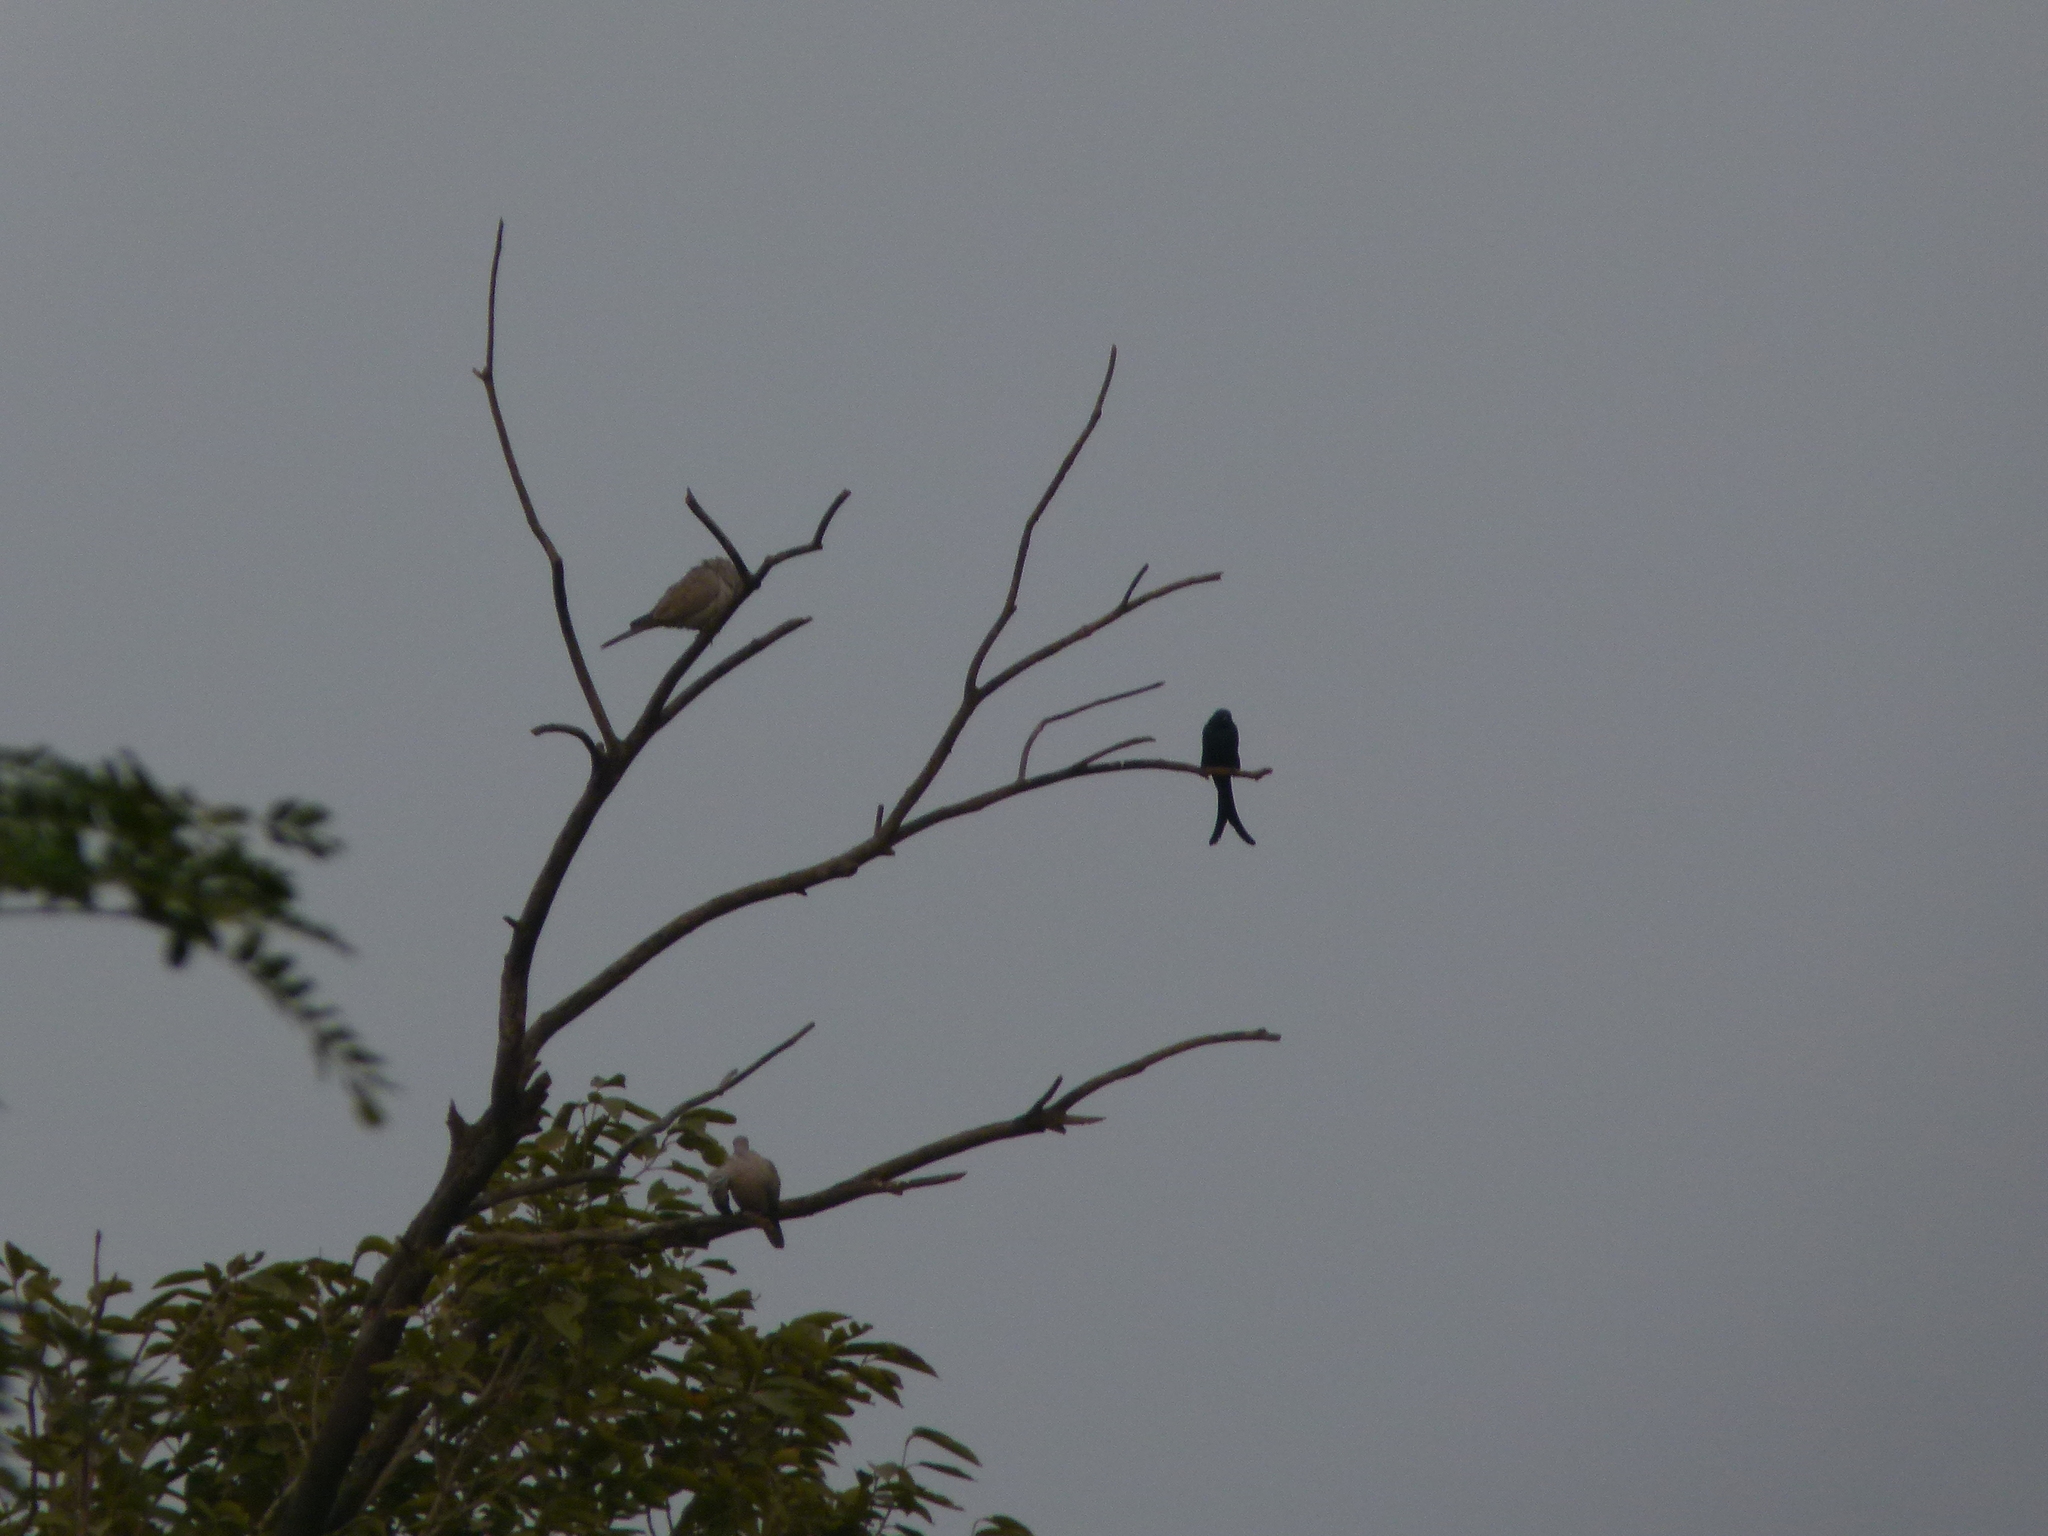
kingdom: Animalia
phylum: Chordata
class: Aves
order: Passeriformes
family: Dicruridae
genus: Dicrurus
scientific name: Dicrurus macrocercus
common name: Black drongo
